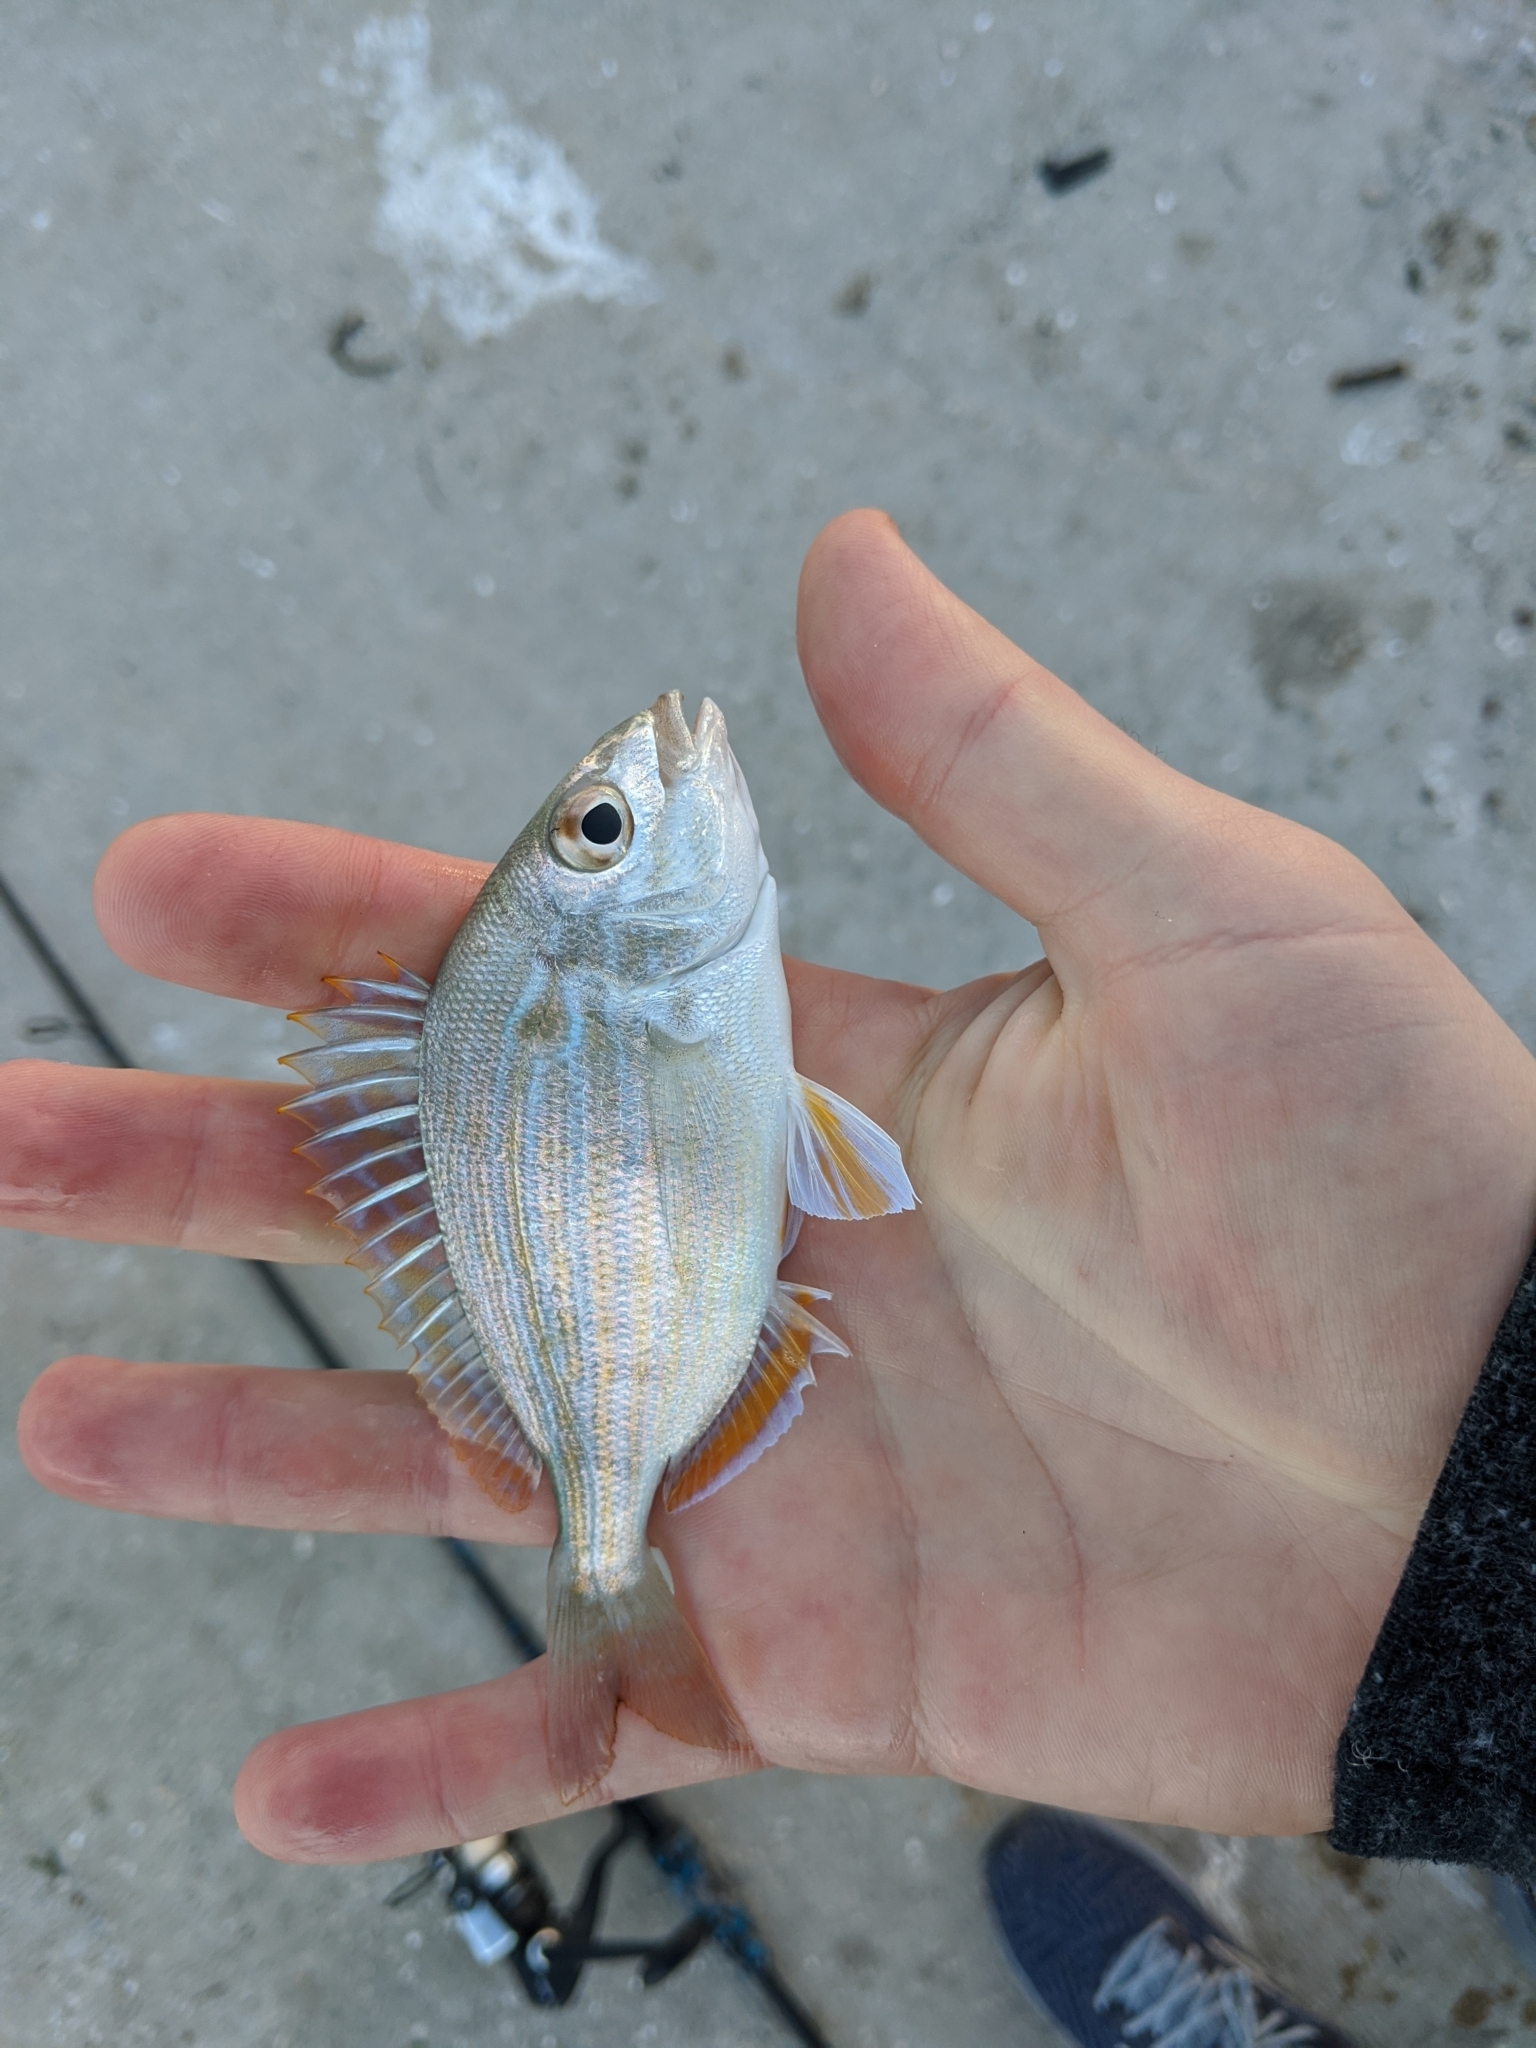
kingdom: Animalia
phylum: Chordata
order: Perciformes
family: Sparidae
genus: Lagodon
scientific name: Lagodon rhomboides
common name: Pinfish
